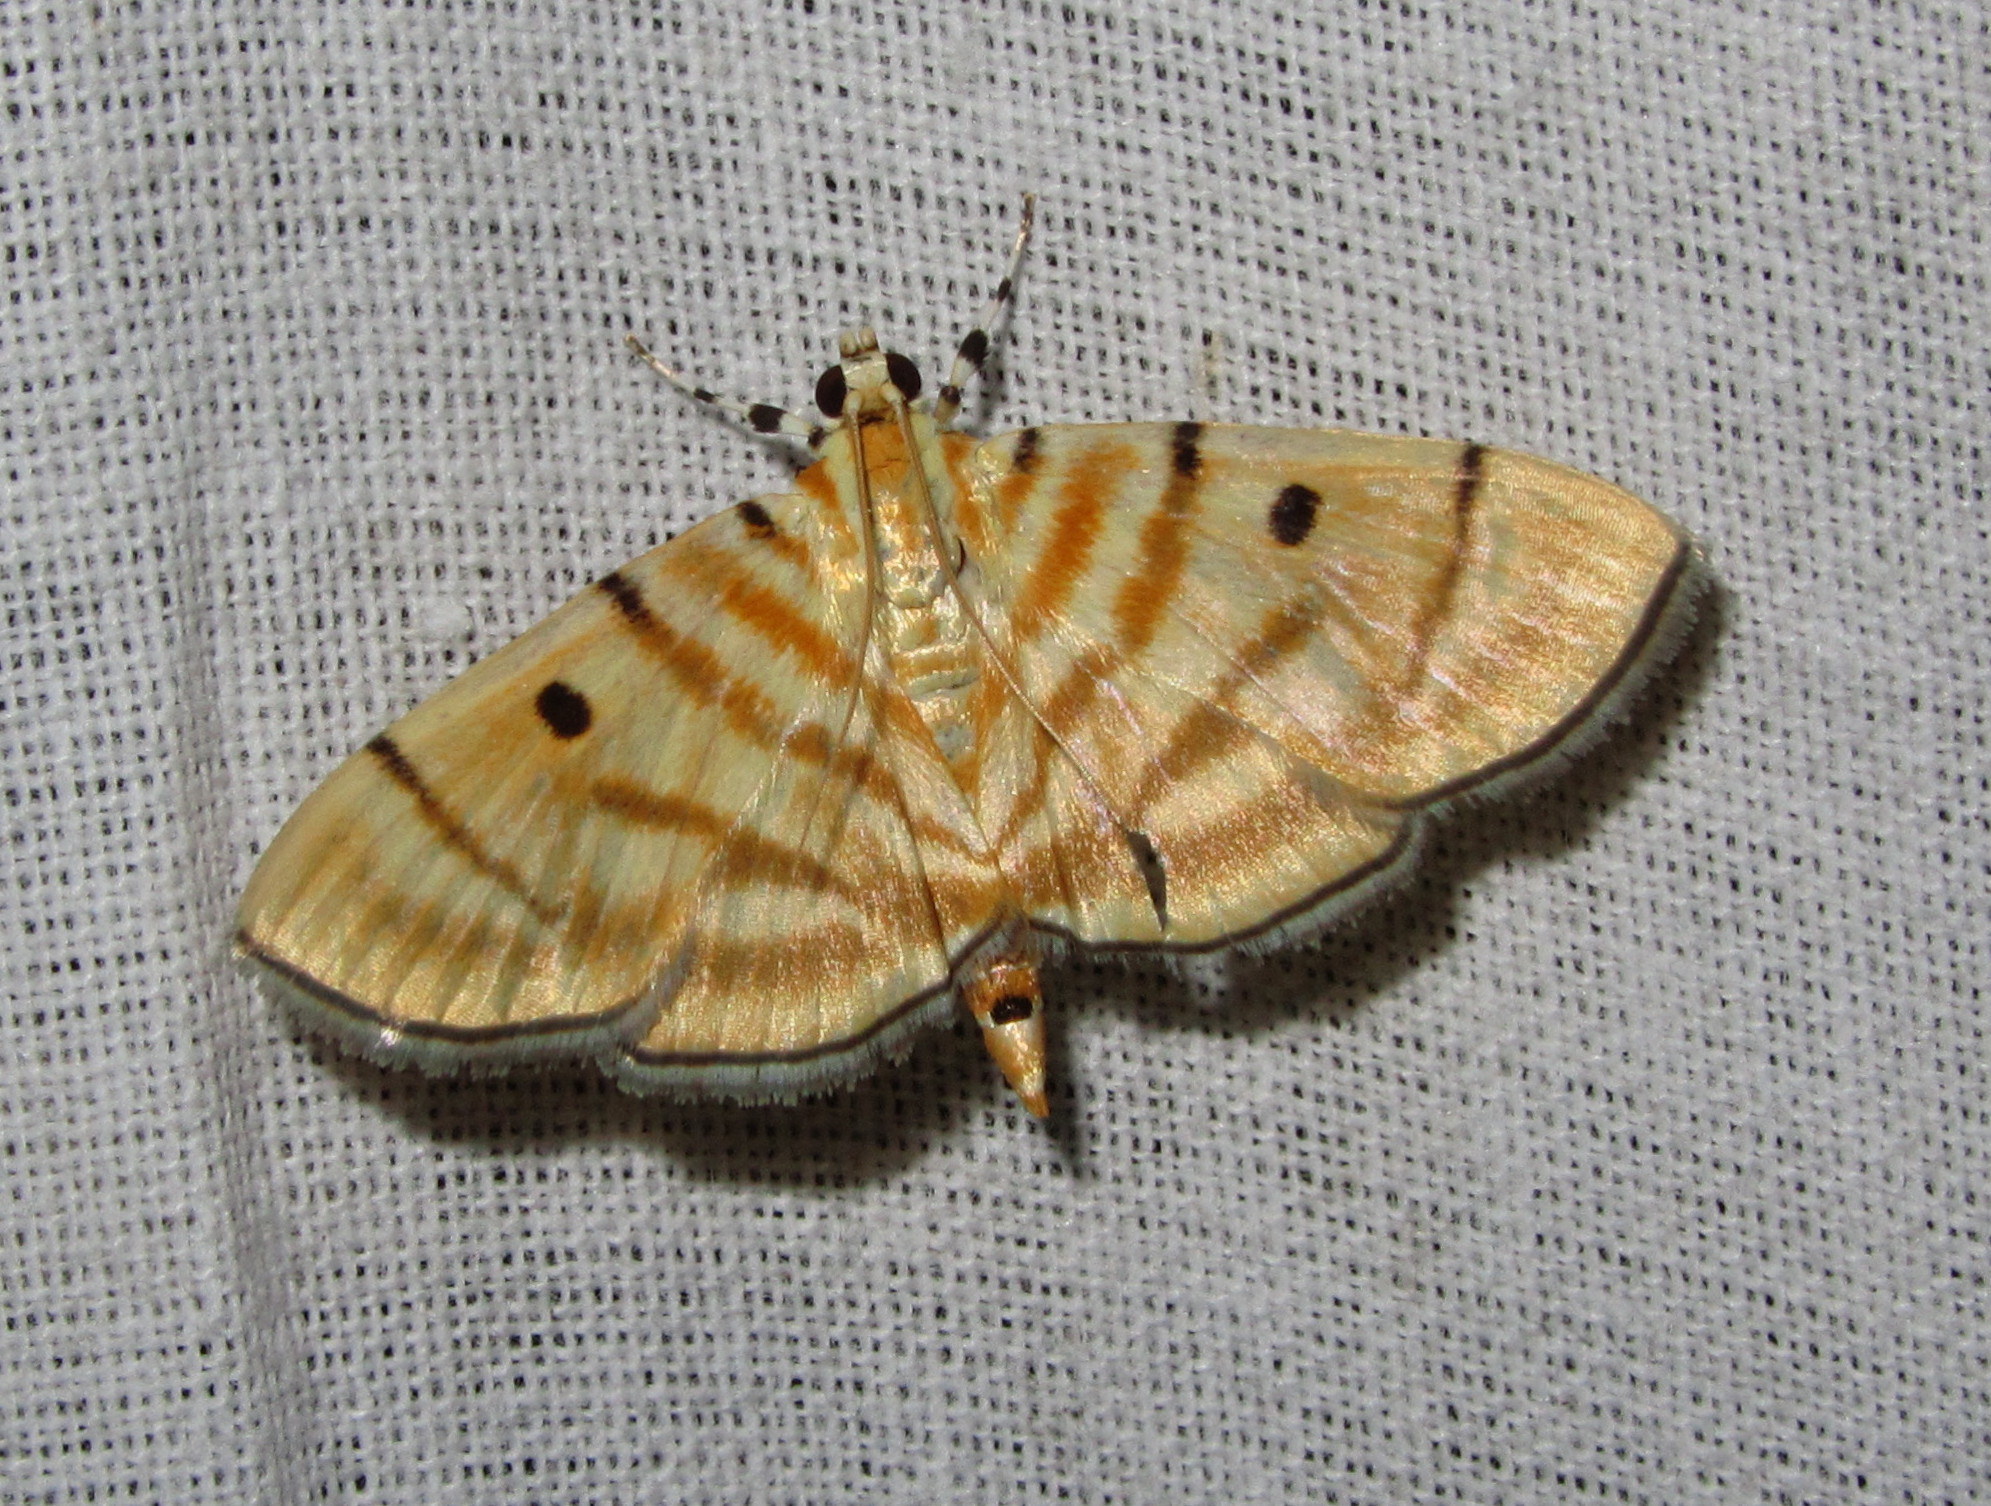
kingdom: Animalia
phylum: Arthropoda
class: Insecta
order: Lepidoptera
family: Crambidae
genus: Orthospila
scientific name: Orthospila orissusalis
